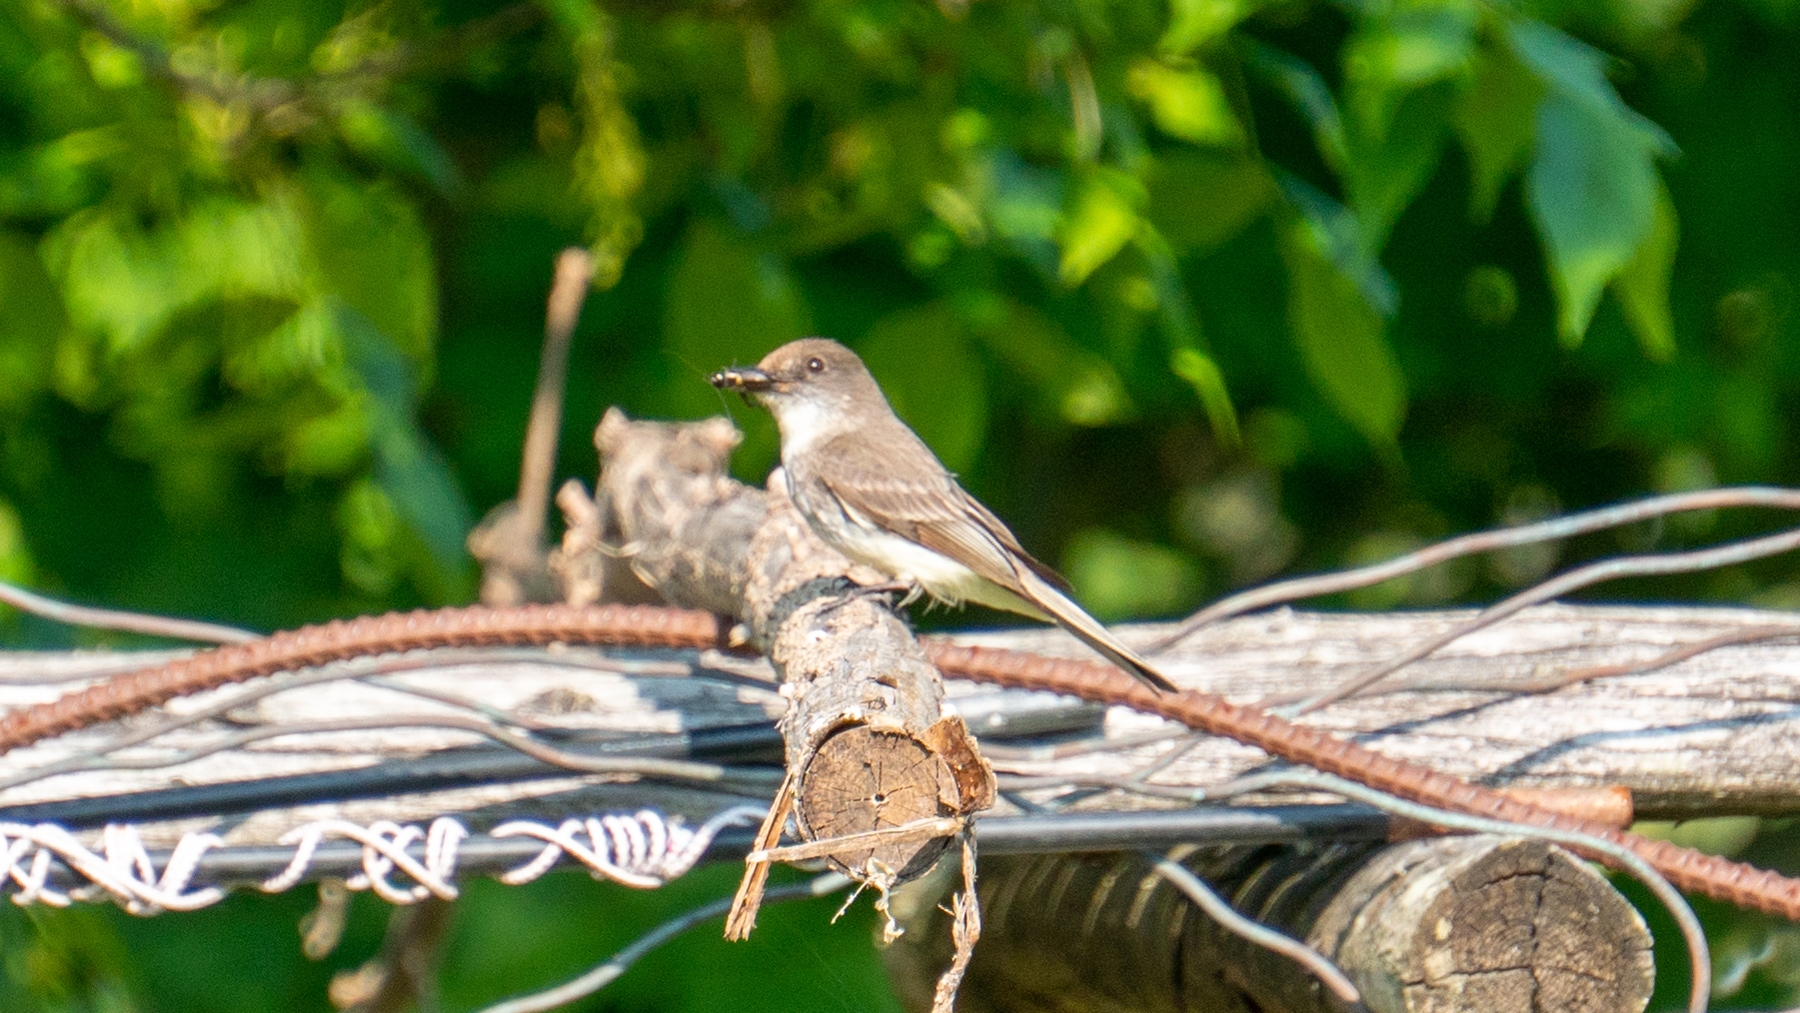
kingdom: Animalia
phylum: Chordata
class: Aves
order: Passeriformes
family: Tyrannidae
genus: Sayornis
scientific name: Sayornis phoebe
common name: Eastern phoebe
